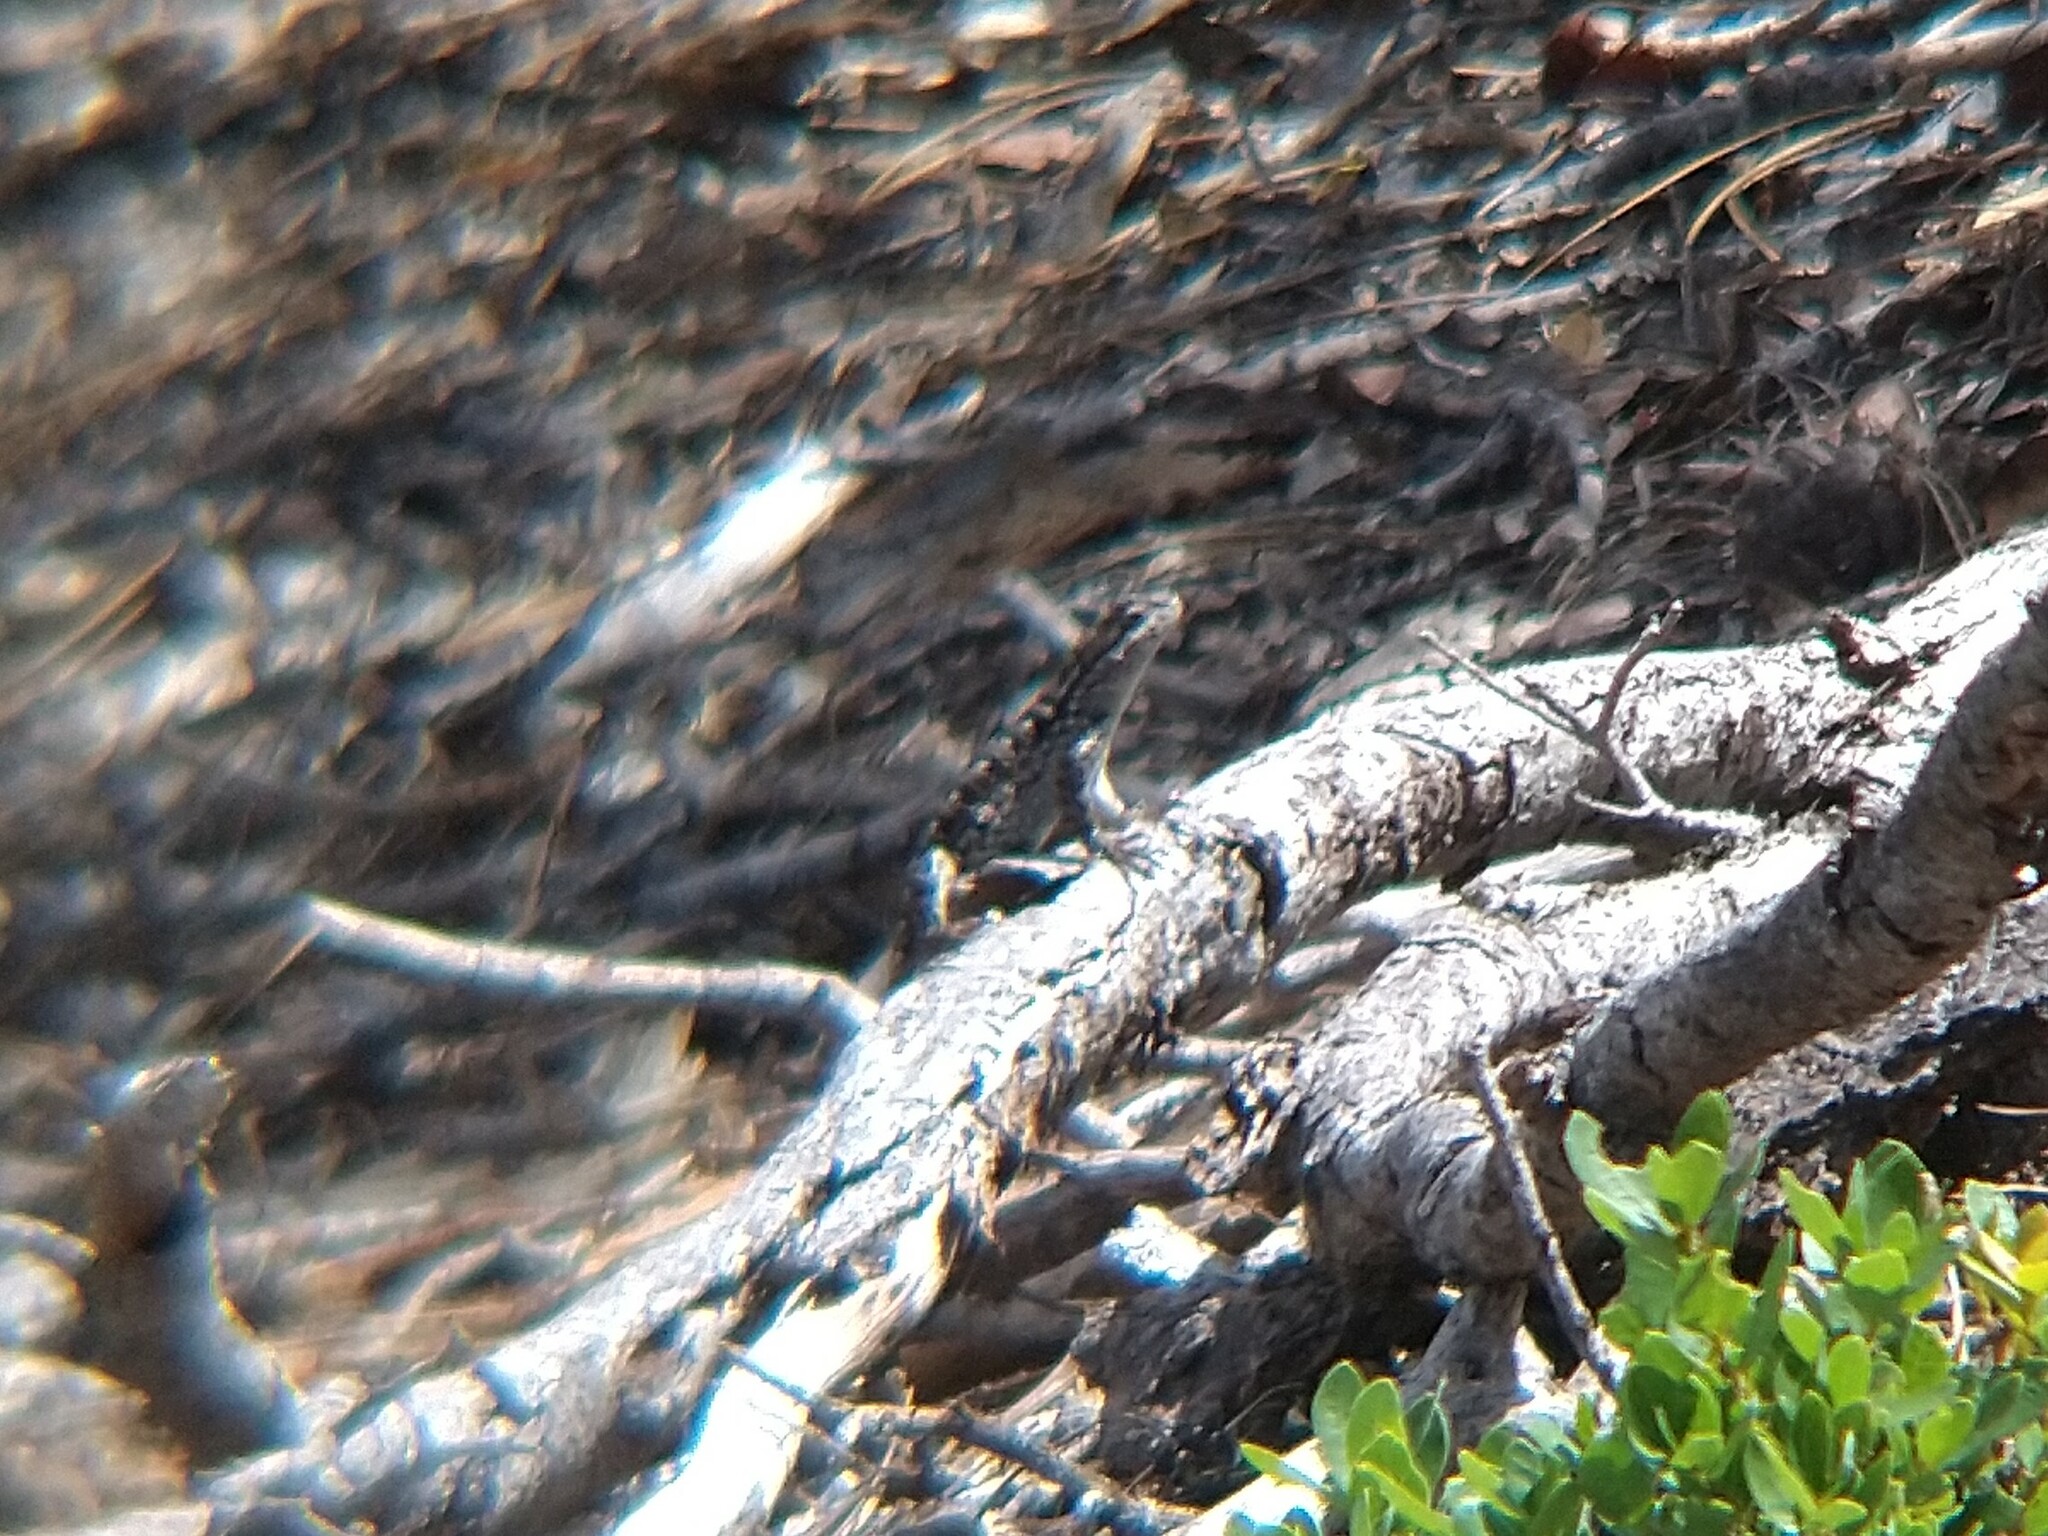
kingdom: Animalia
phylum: Chordata
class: Squamata
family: Phrynosomatidae
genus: Sceloporus
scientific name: Sceloporus occidentalis
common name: Western fence lizard
